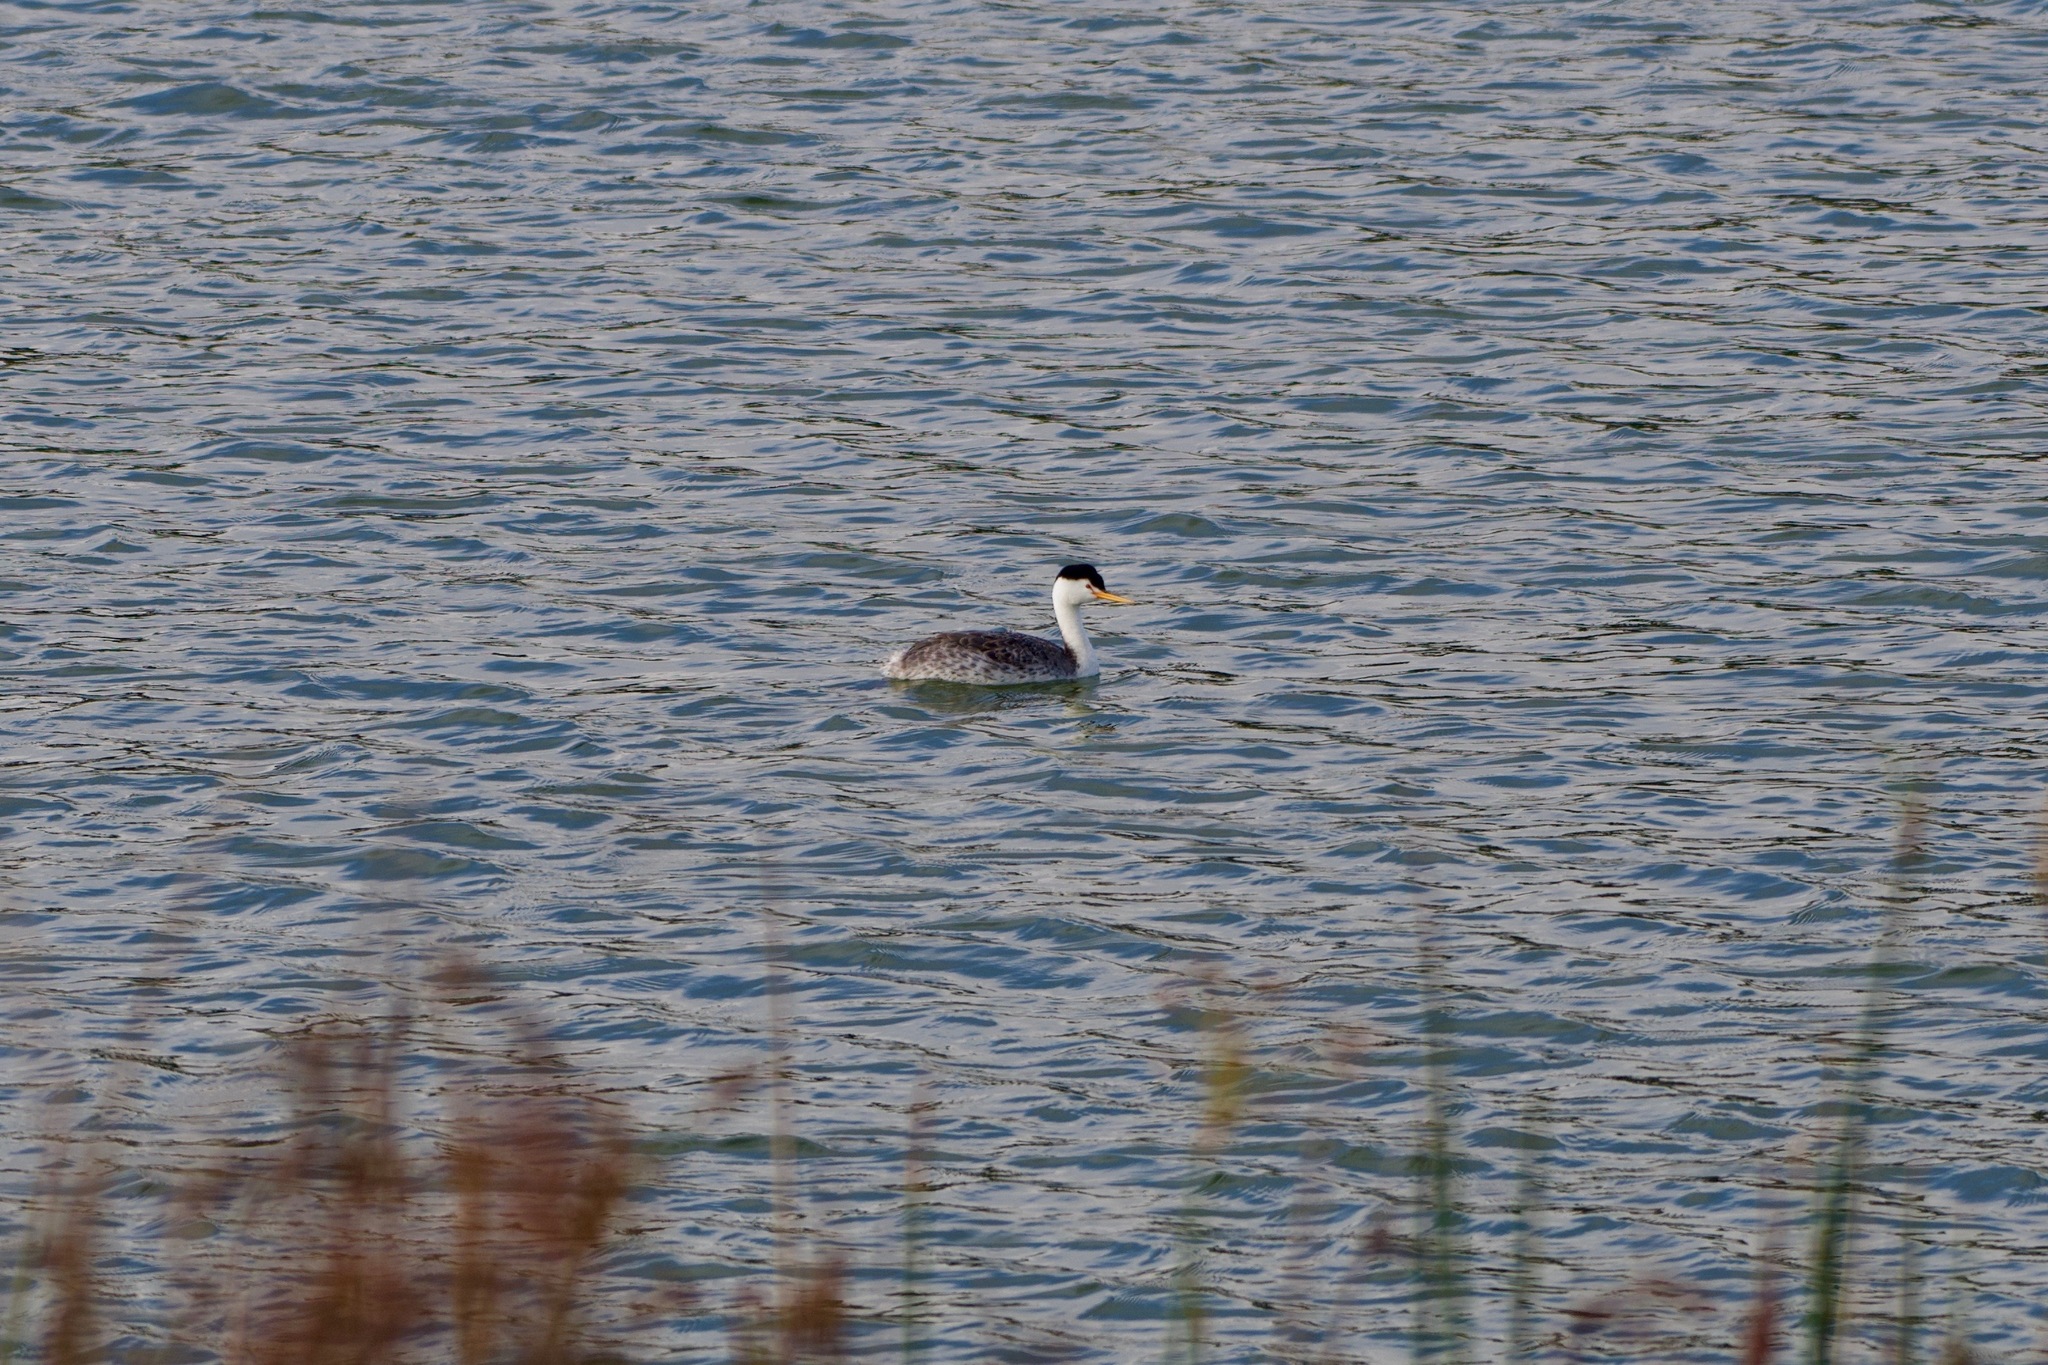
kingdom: Animalia
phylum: Chordata
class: Aves
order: Podicipediformes
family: Podicipedidae
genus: Aechmophorus
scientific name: Aechmophorus clarkii
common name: Clark's grebe
